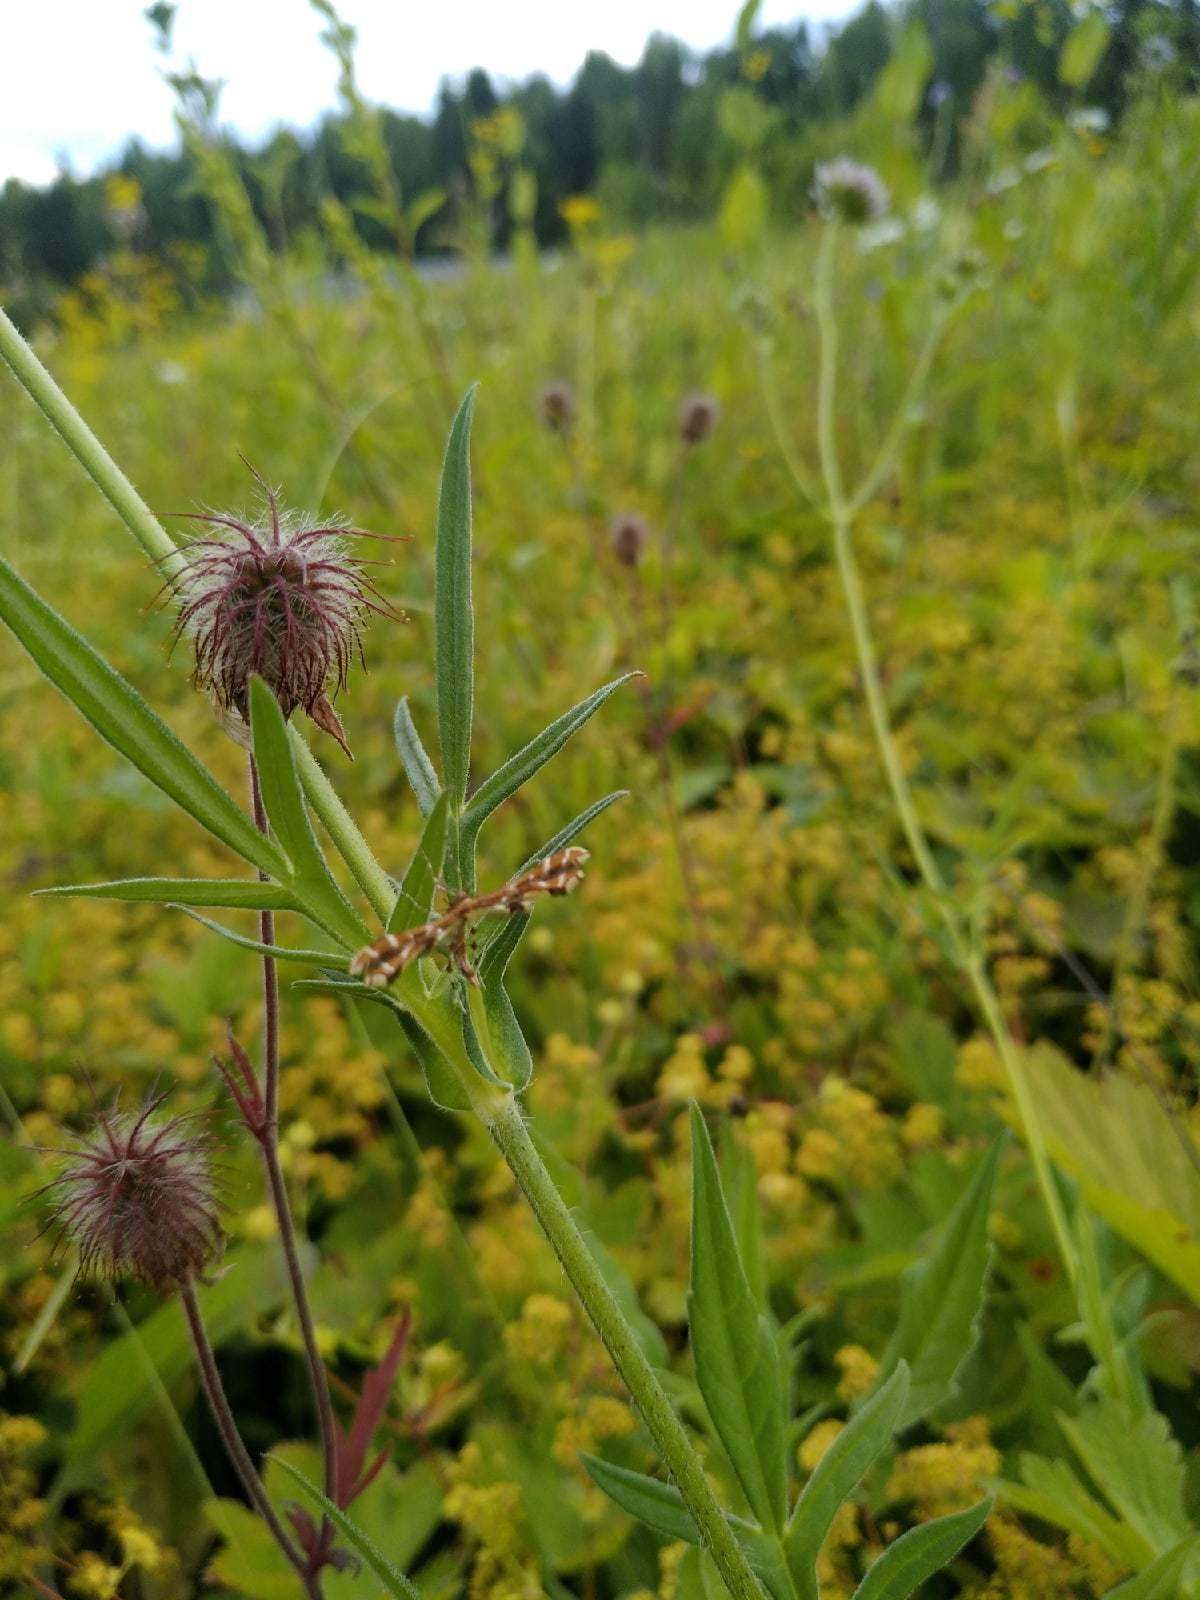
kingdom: Animalia
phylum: Arthropoda
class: Insecta
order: Lepidoptera
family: Pterophoridae
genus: Geina
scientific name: Geina didactyla
